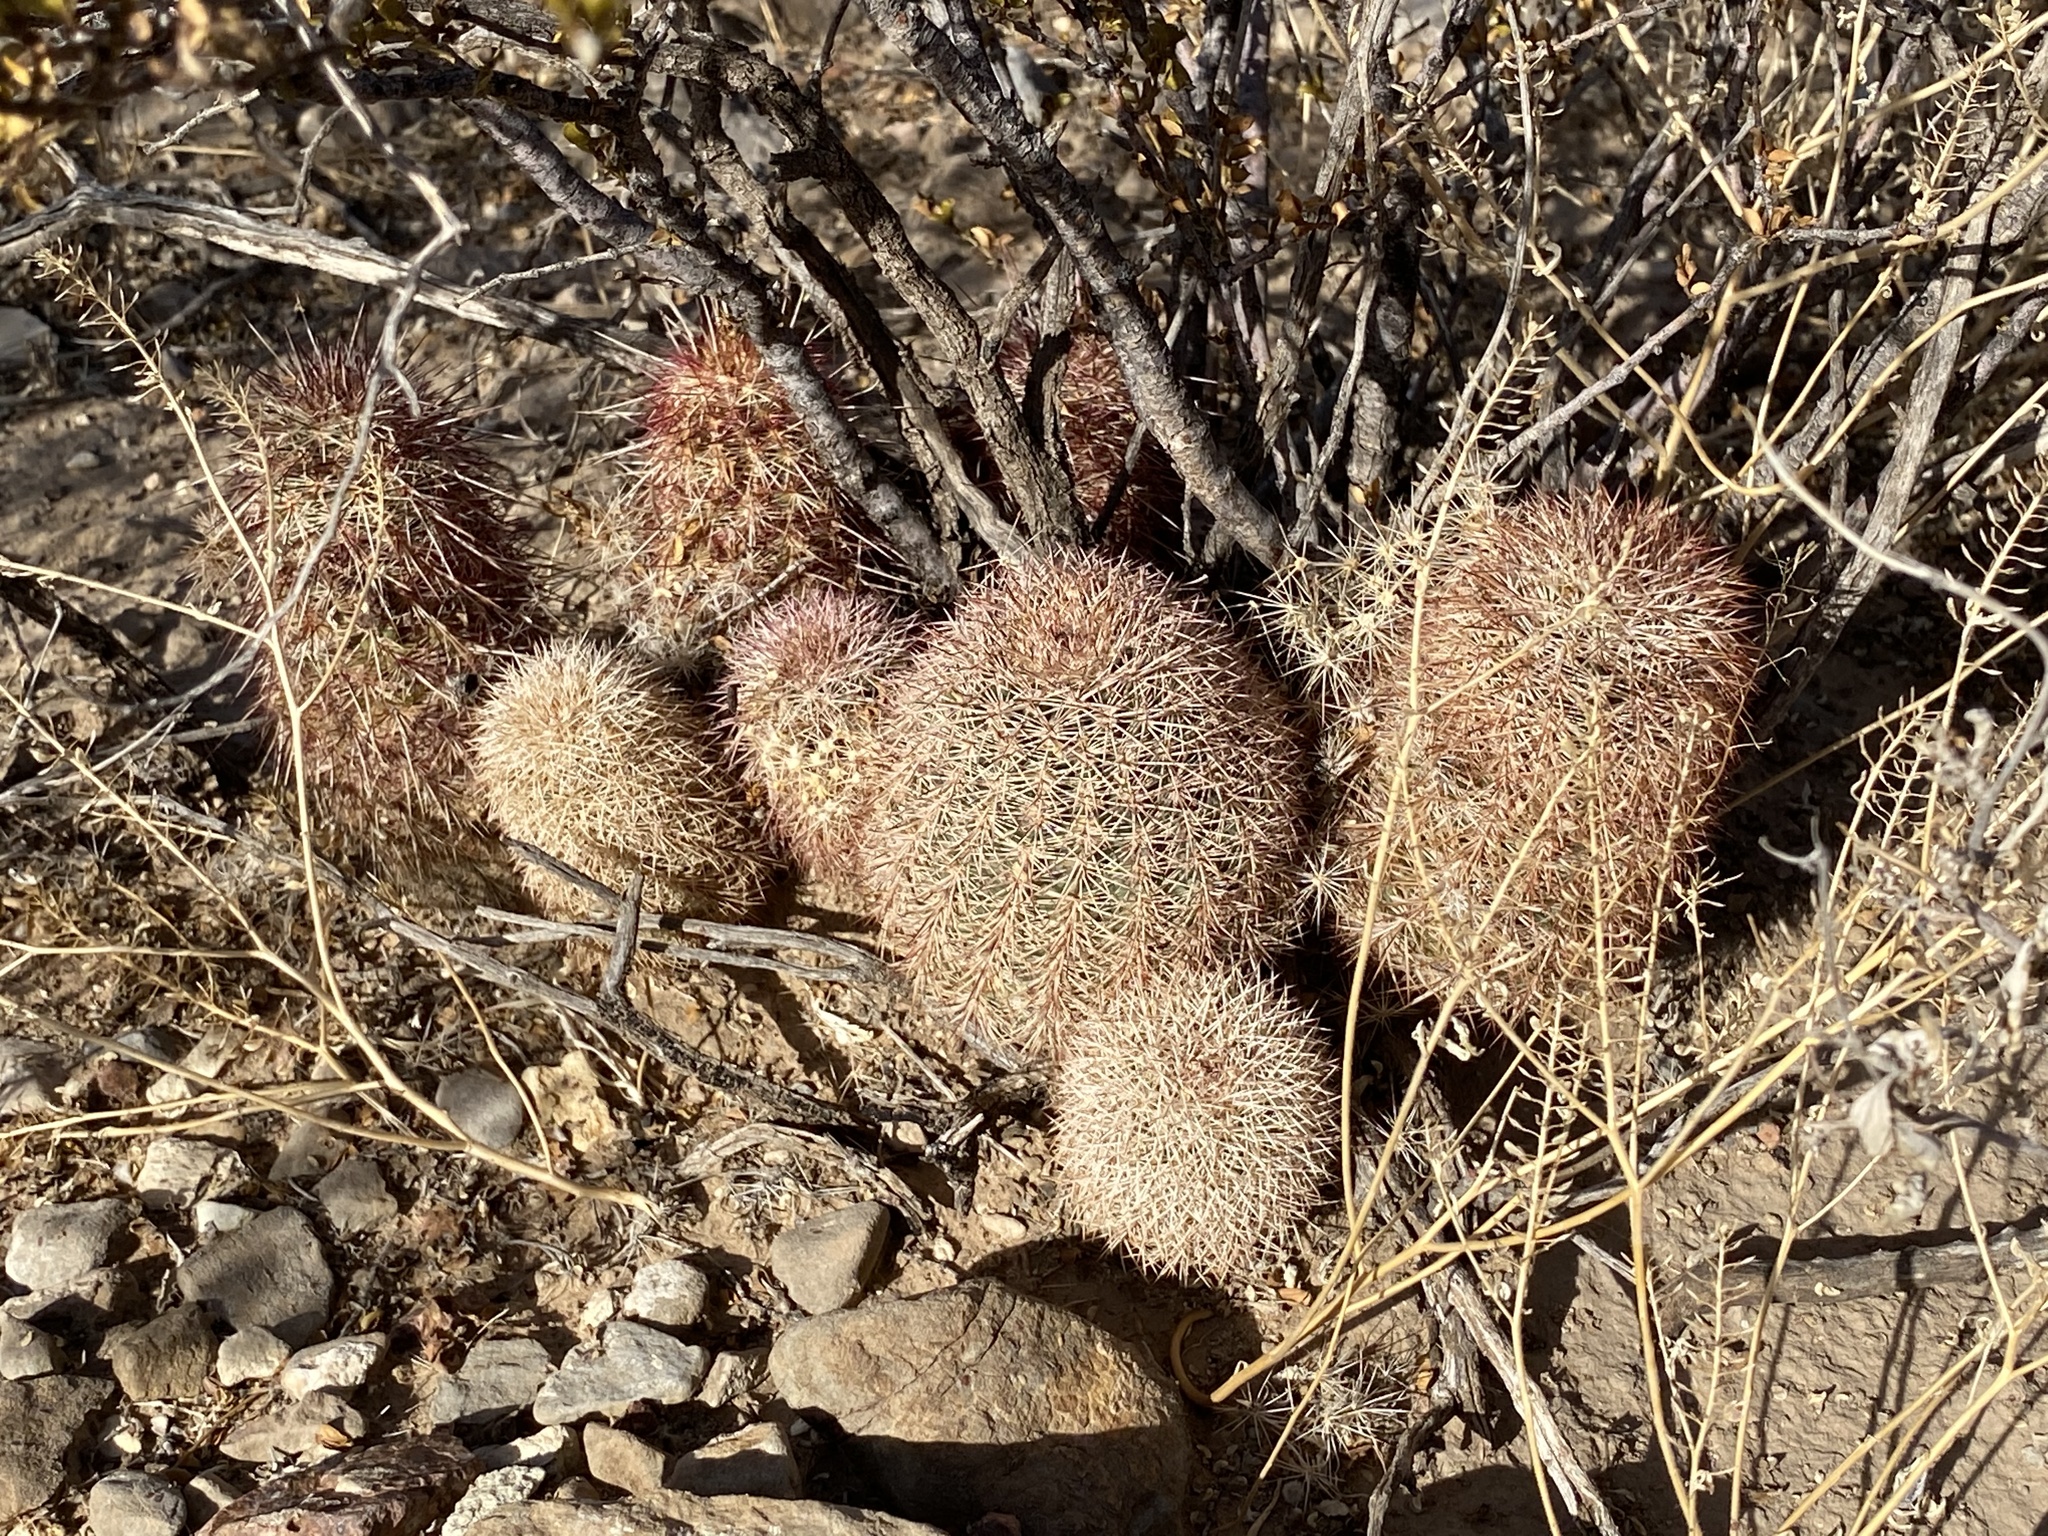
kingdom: Plantae
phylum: Tracheophyta
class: Magnoliopsida
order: Caryophyllales
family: Cactaceae
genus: Echinocereus
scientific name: Echinocereus dasyacanthus
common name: Spiny hedgehog cactus
